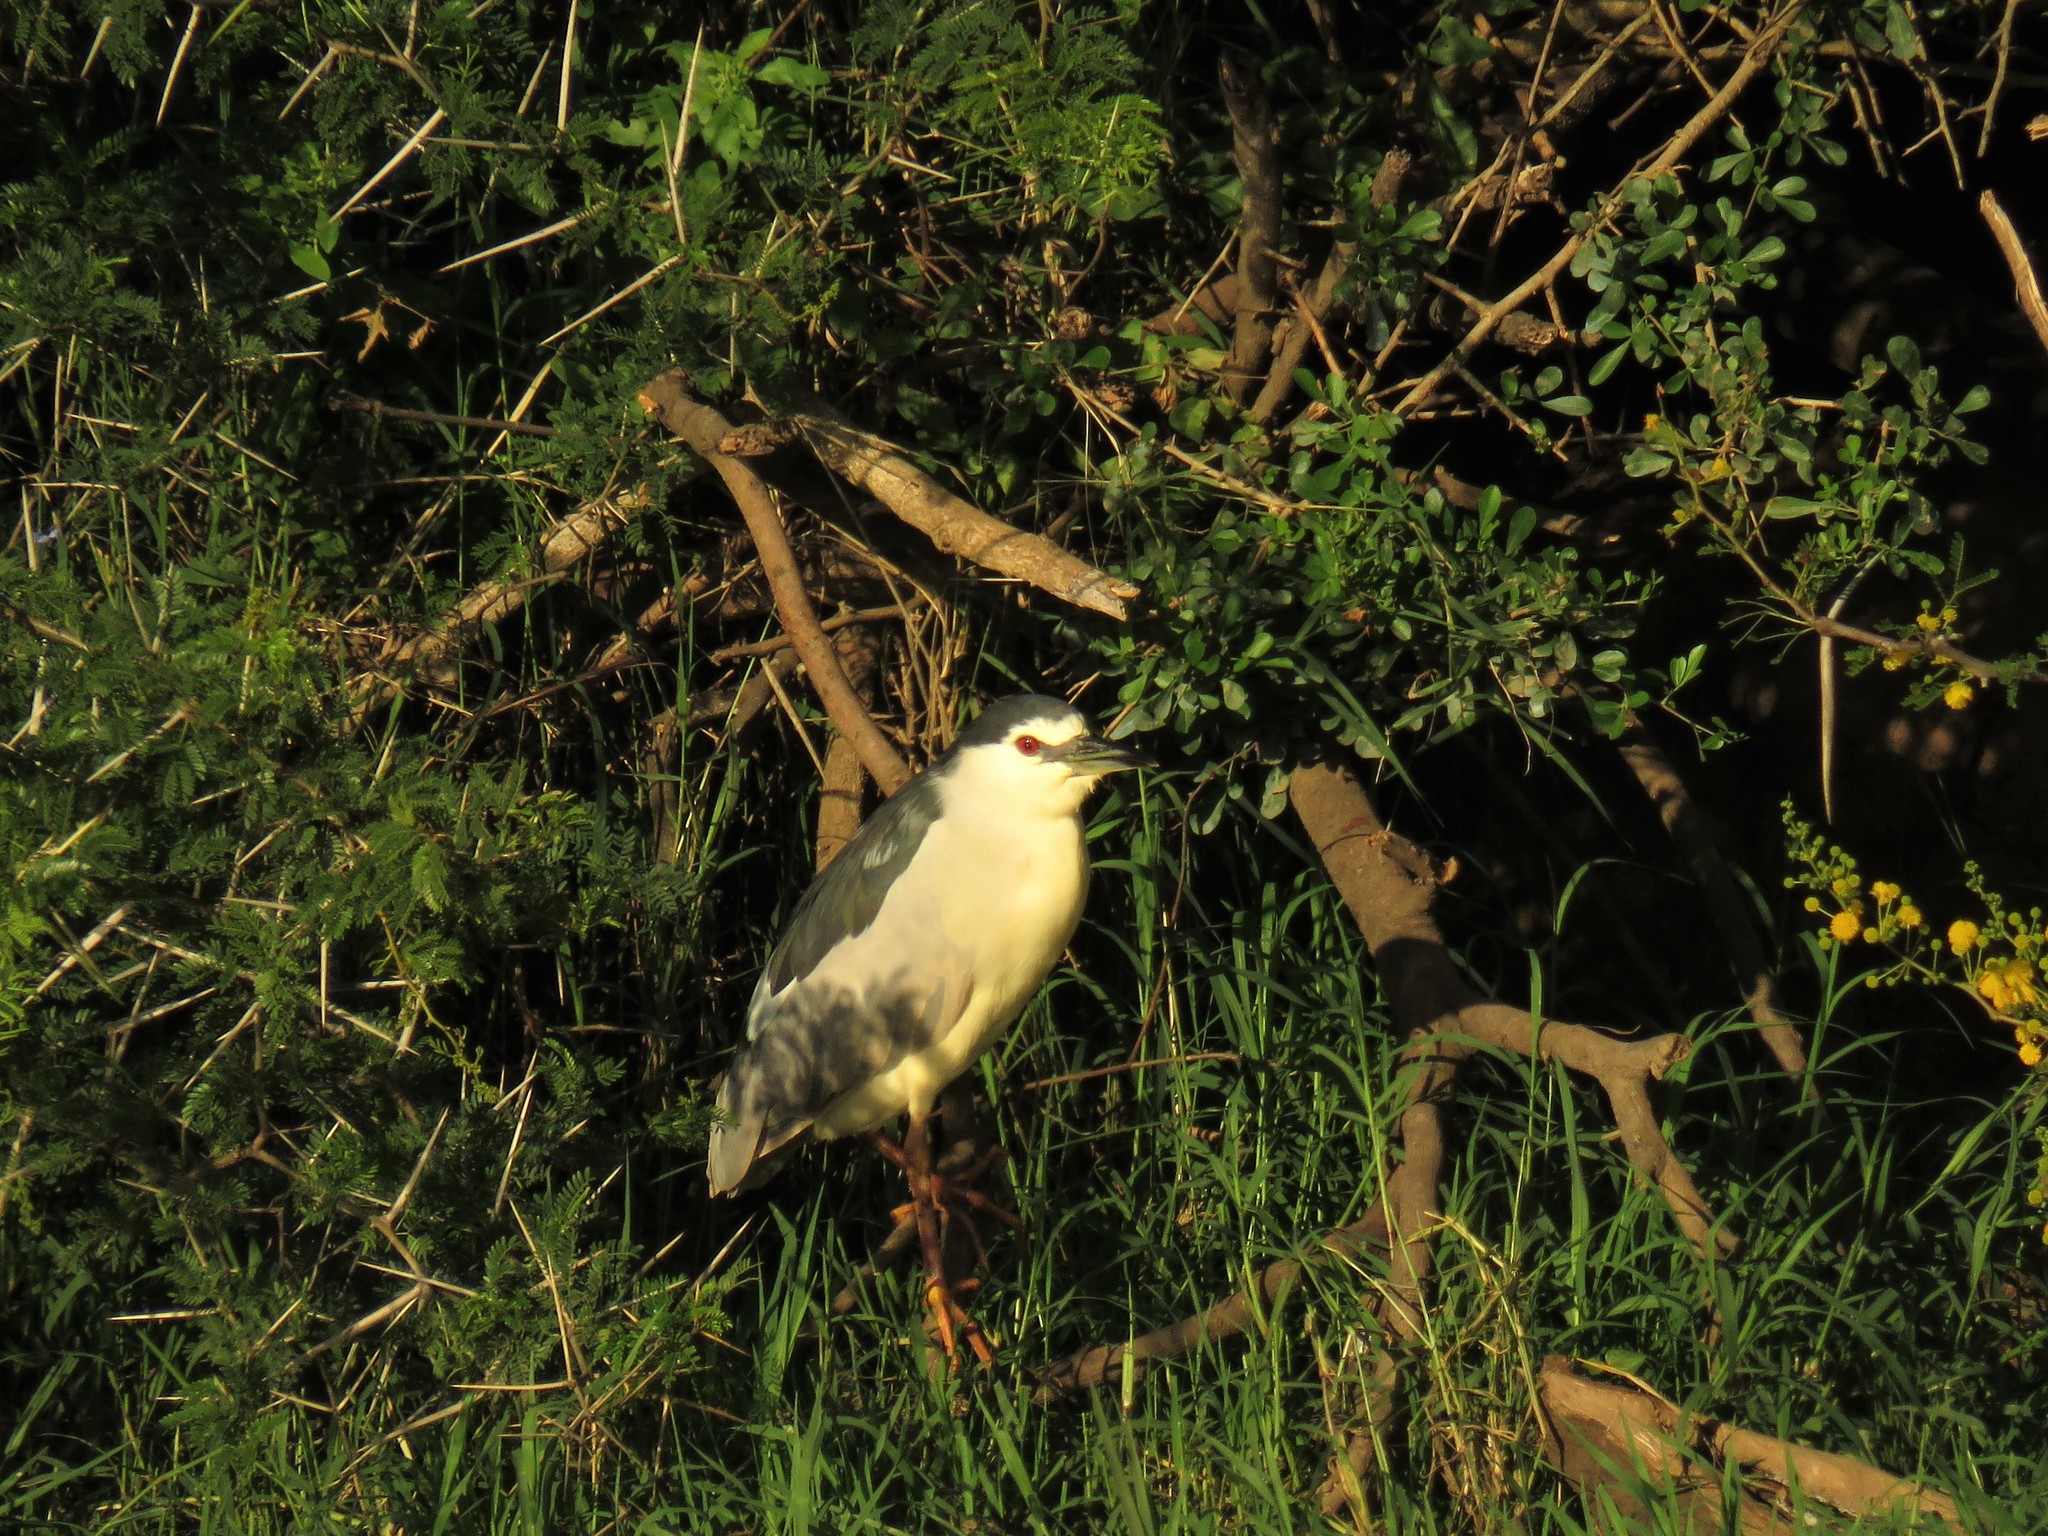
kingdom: Animalia
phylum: Chordata
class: Aves
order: Pelecaniformes
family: Ardeidae
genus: Nycticorax
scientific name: Nycticorax nycticorax
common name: Black-crowned night heron
